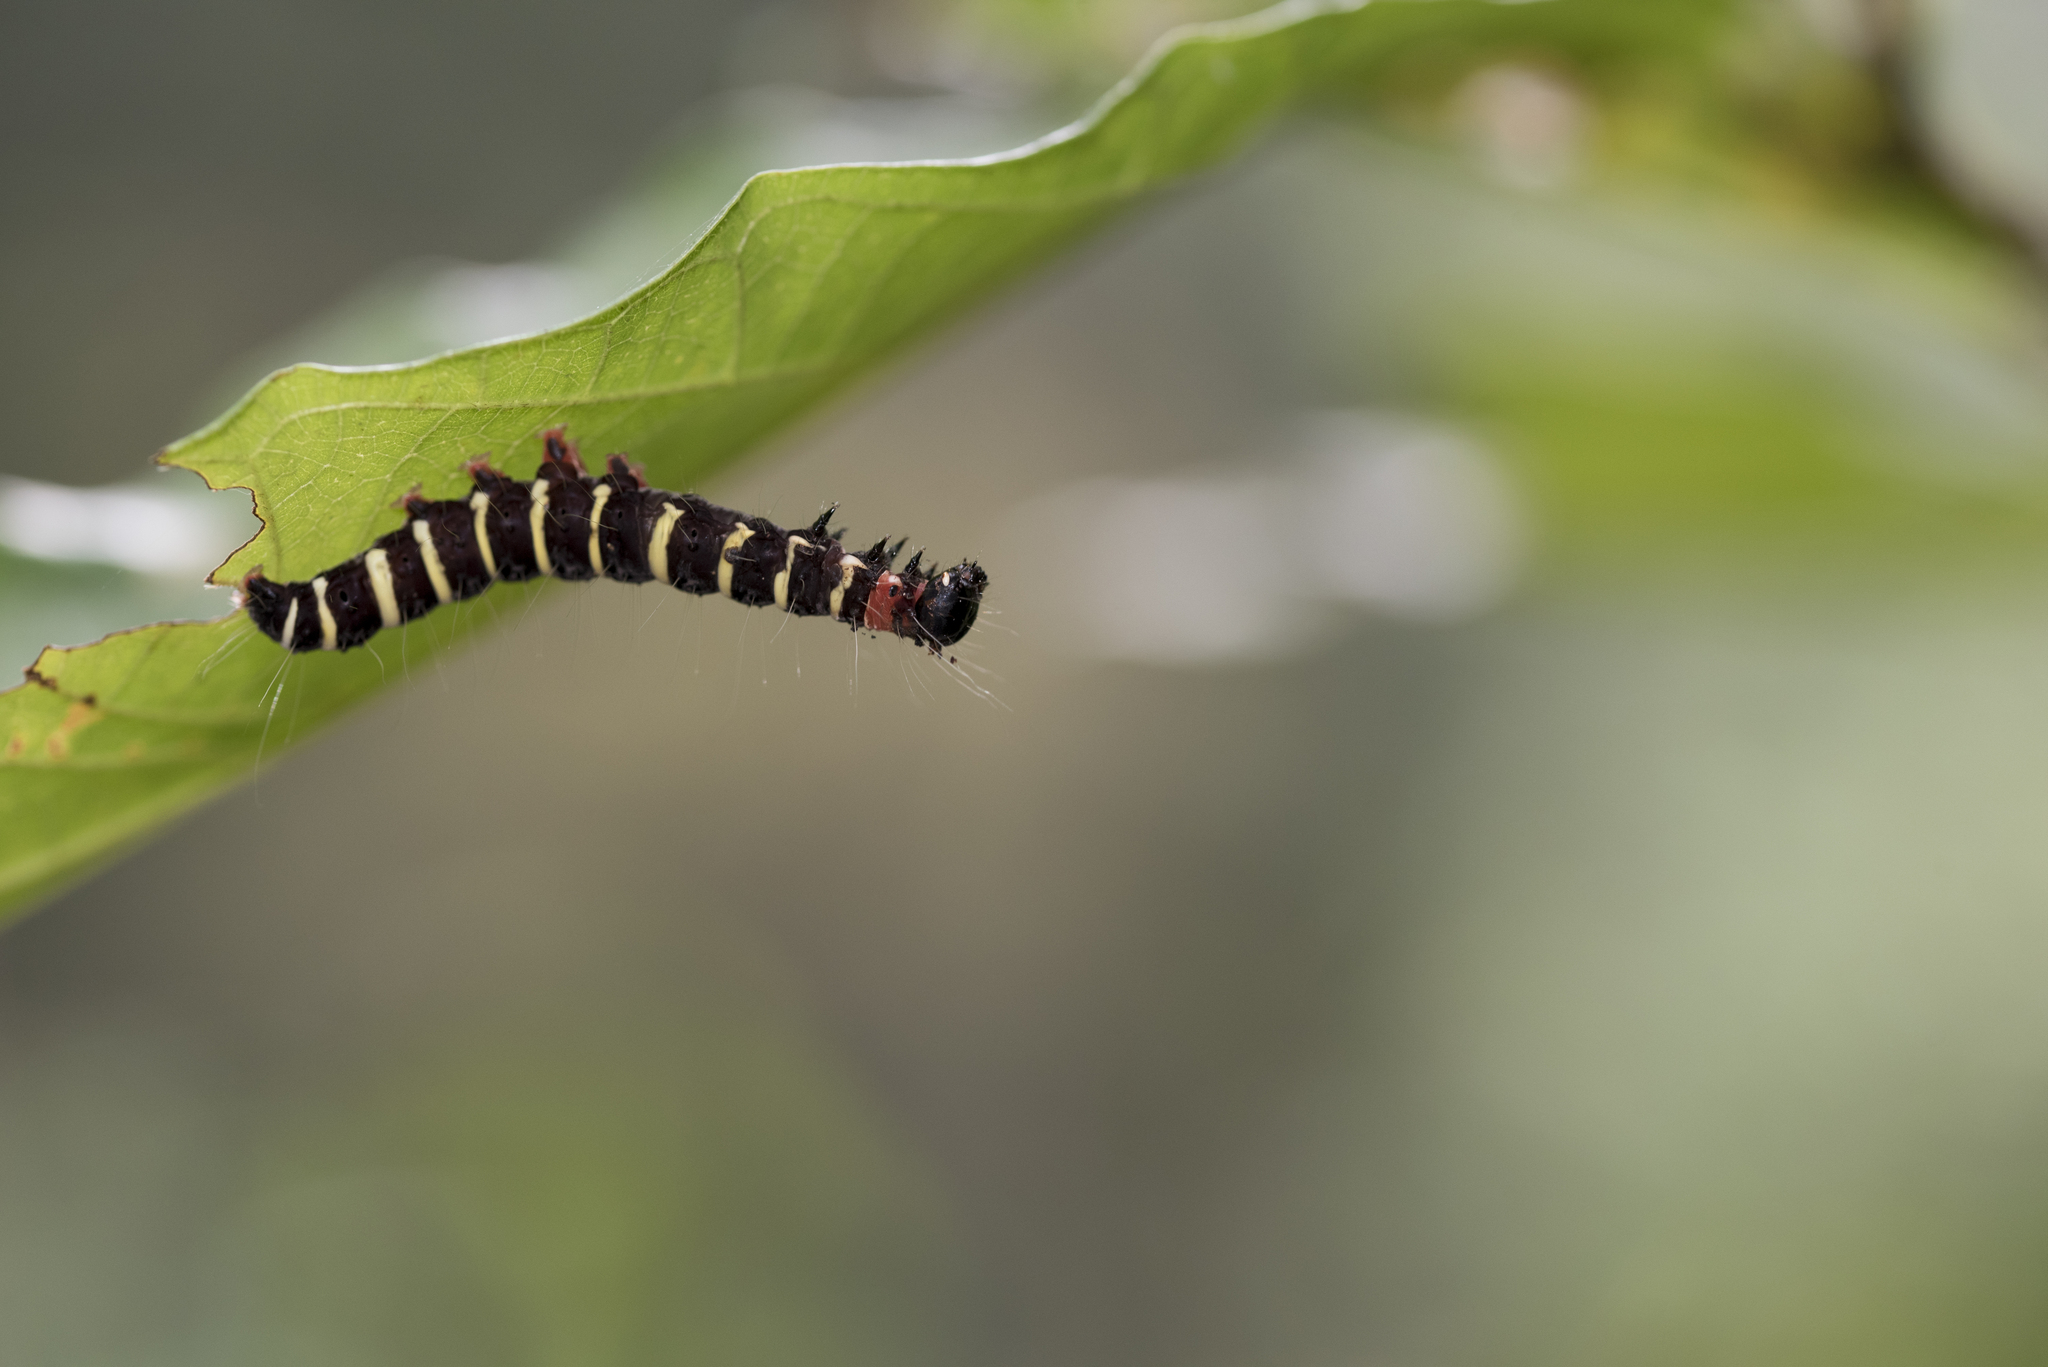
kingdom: Animalia
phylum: Arthropoda
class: Insecta
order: Lepidoptera
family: Erebidae
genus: Asota
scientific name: Asota plana
